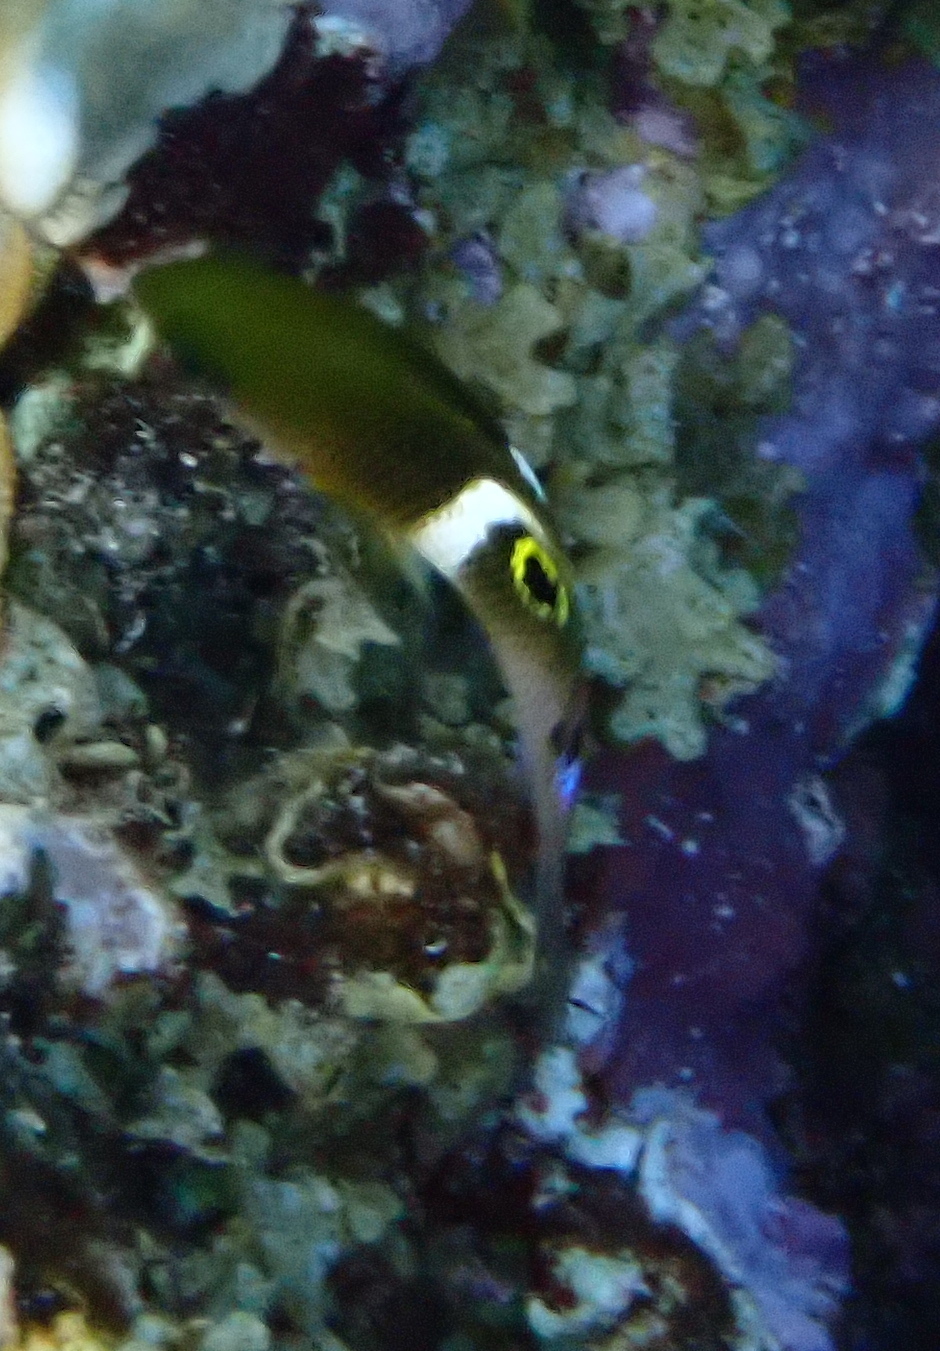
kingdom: Animalia
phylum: Chordata
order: Perciformes
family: Pomacentridae
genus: Plectroglyphidodon
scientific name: Plectroglyphidodon leucozonus
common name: White-band damsel
